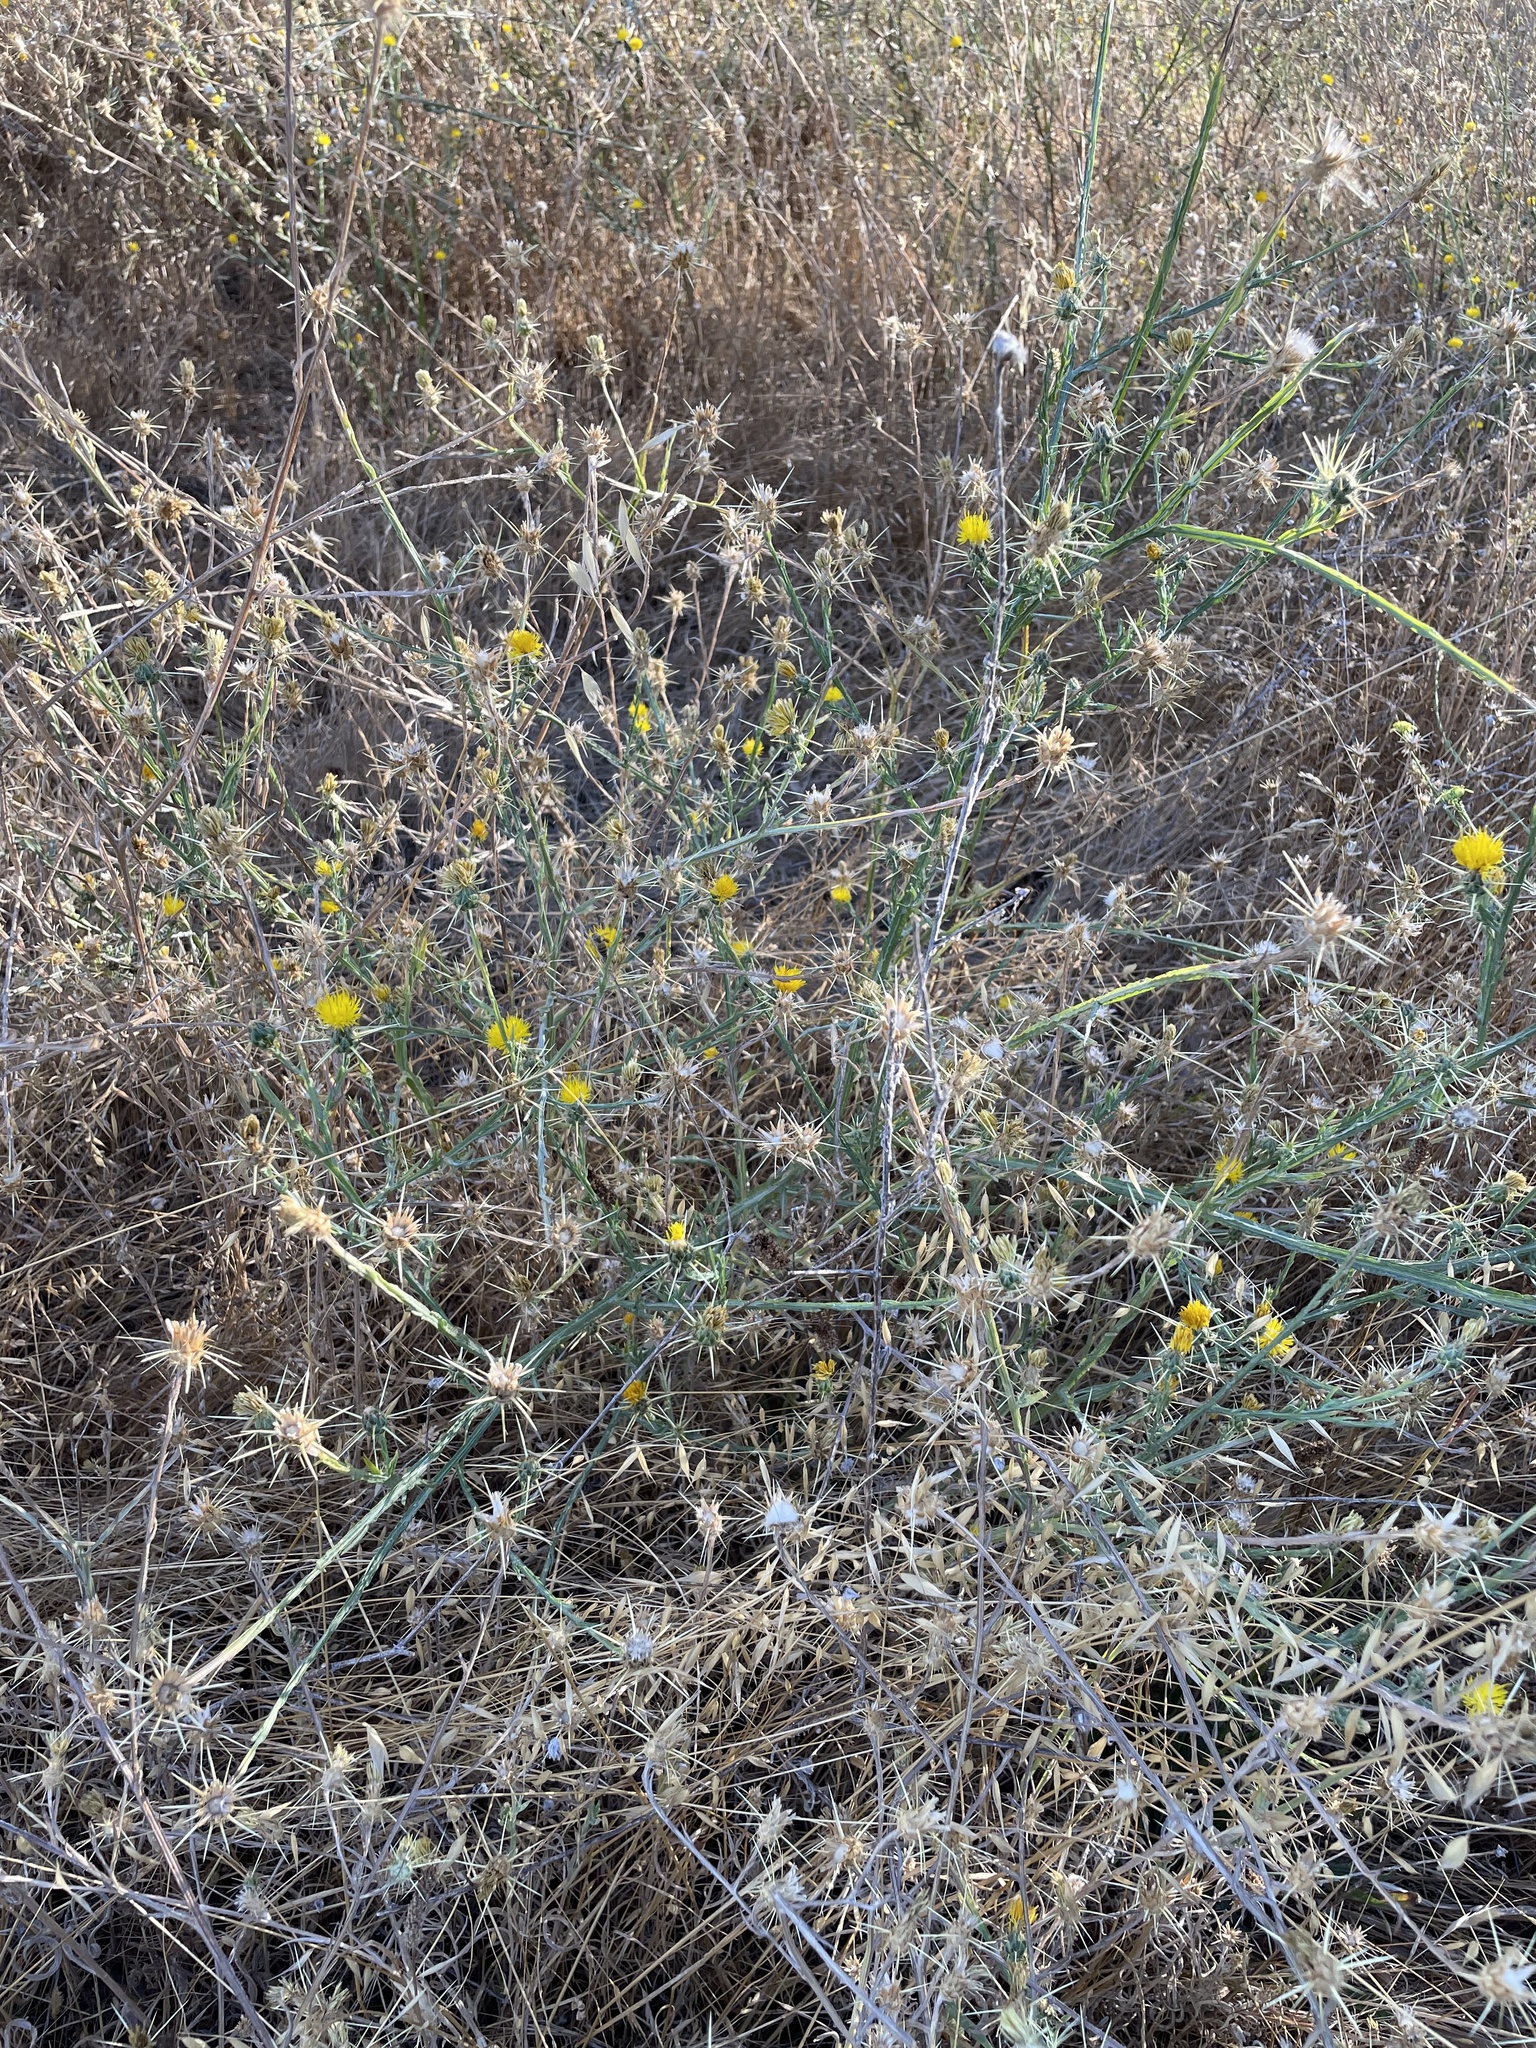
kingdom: Plantae
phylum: Tracheophyta
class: Magnoliopsida
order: Asterales
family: Asteraceae
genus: Centaurea
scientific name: Centaurea solstitialis
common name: Yellow star-thistle
